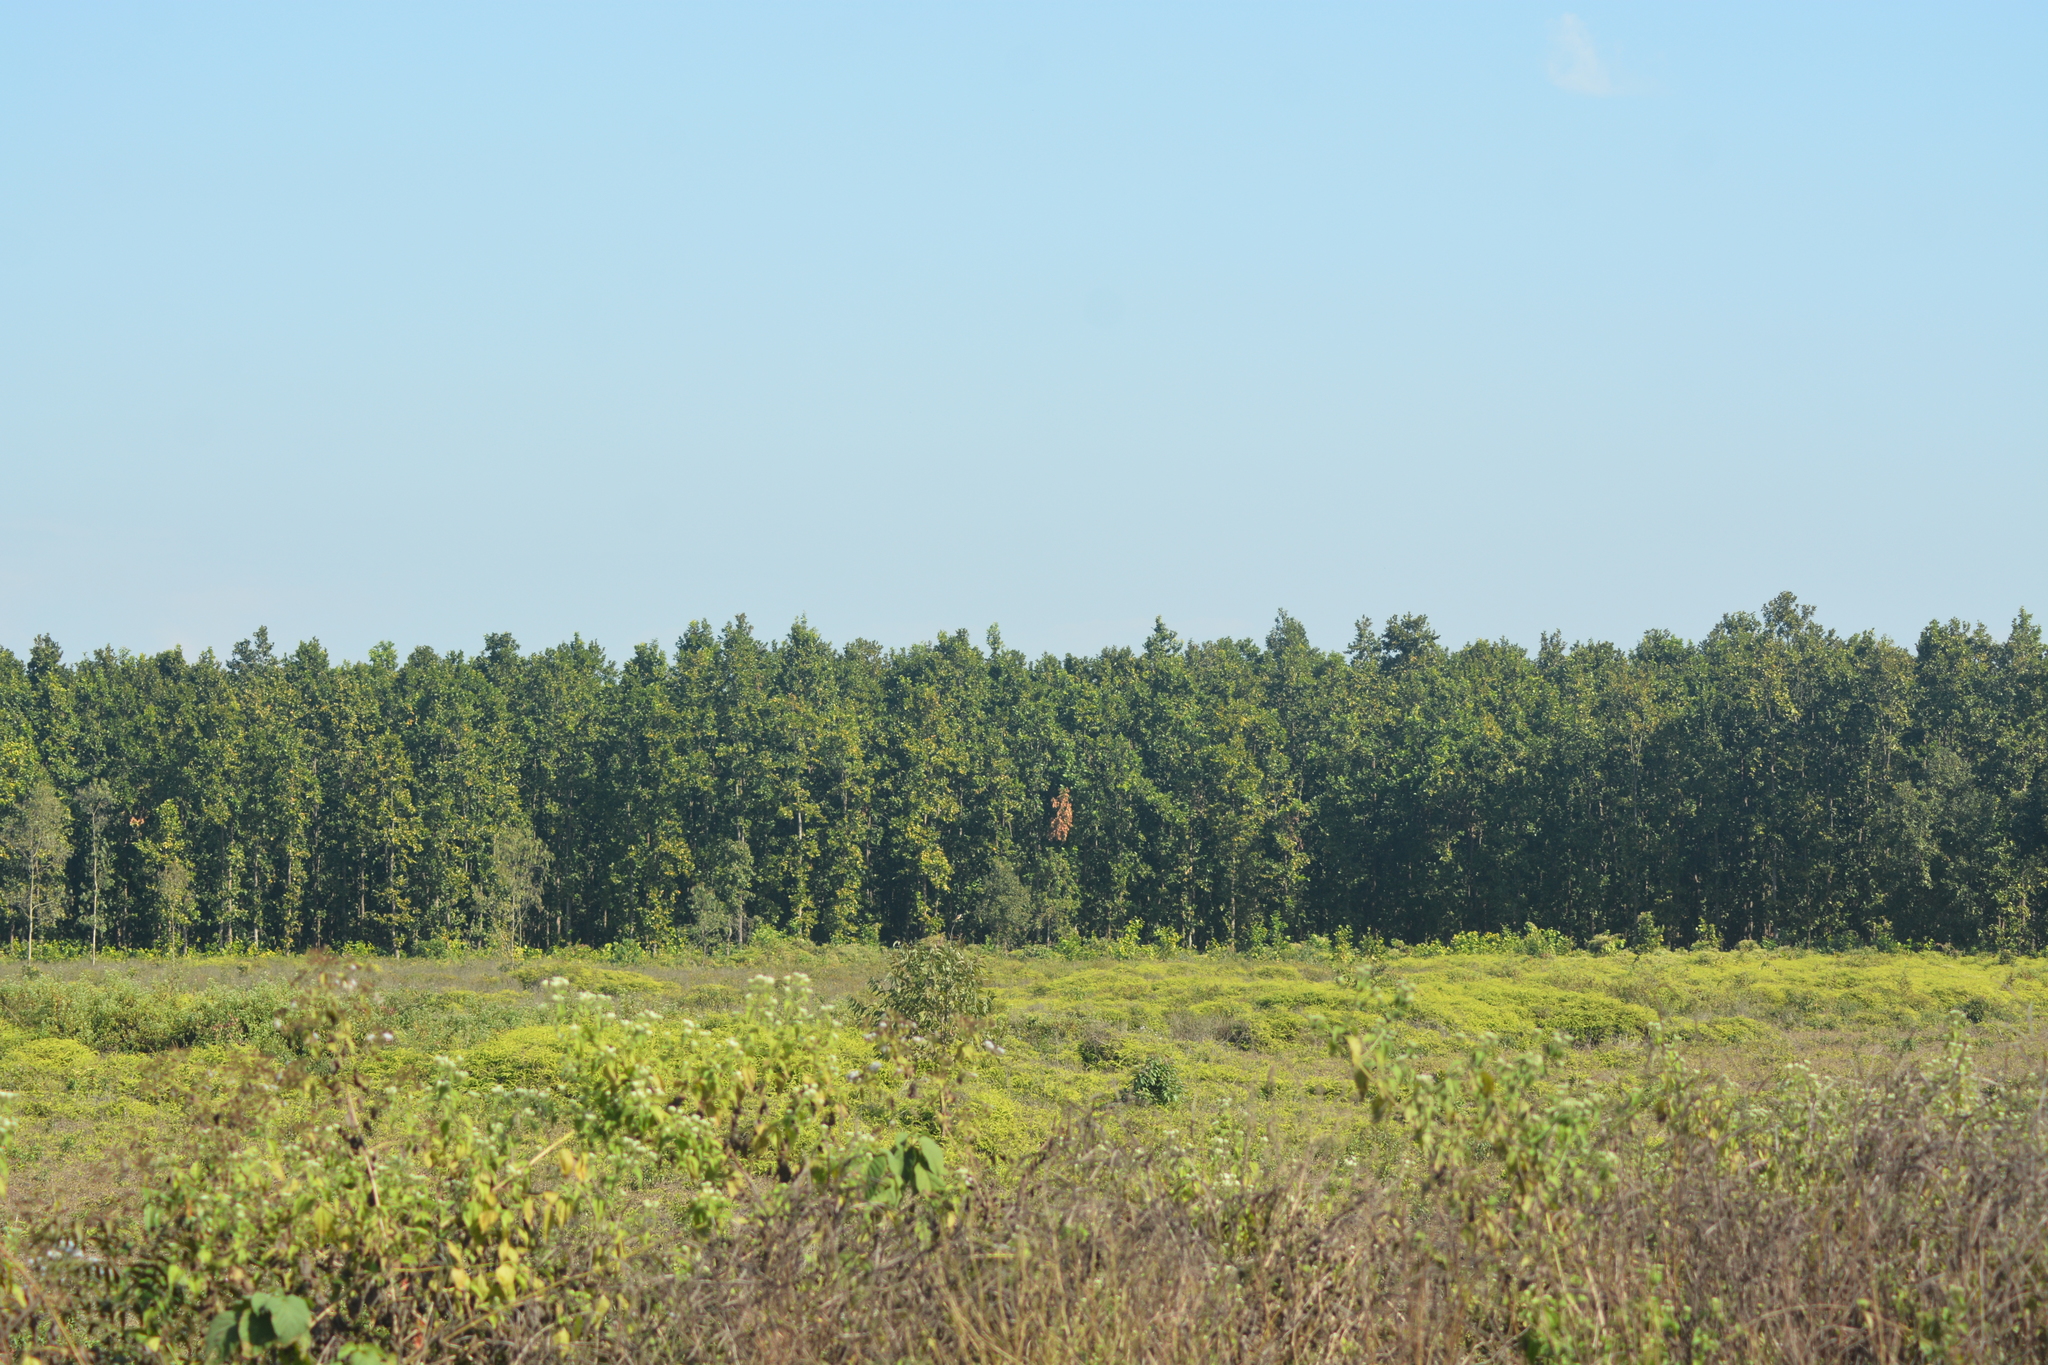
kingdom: Plantae
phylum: Tracheophyta
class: Magnoliopsida
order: Malvales
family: Dipterocarpaceae
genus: Shorea
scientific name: Shorea robusta
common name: Saltree
